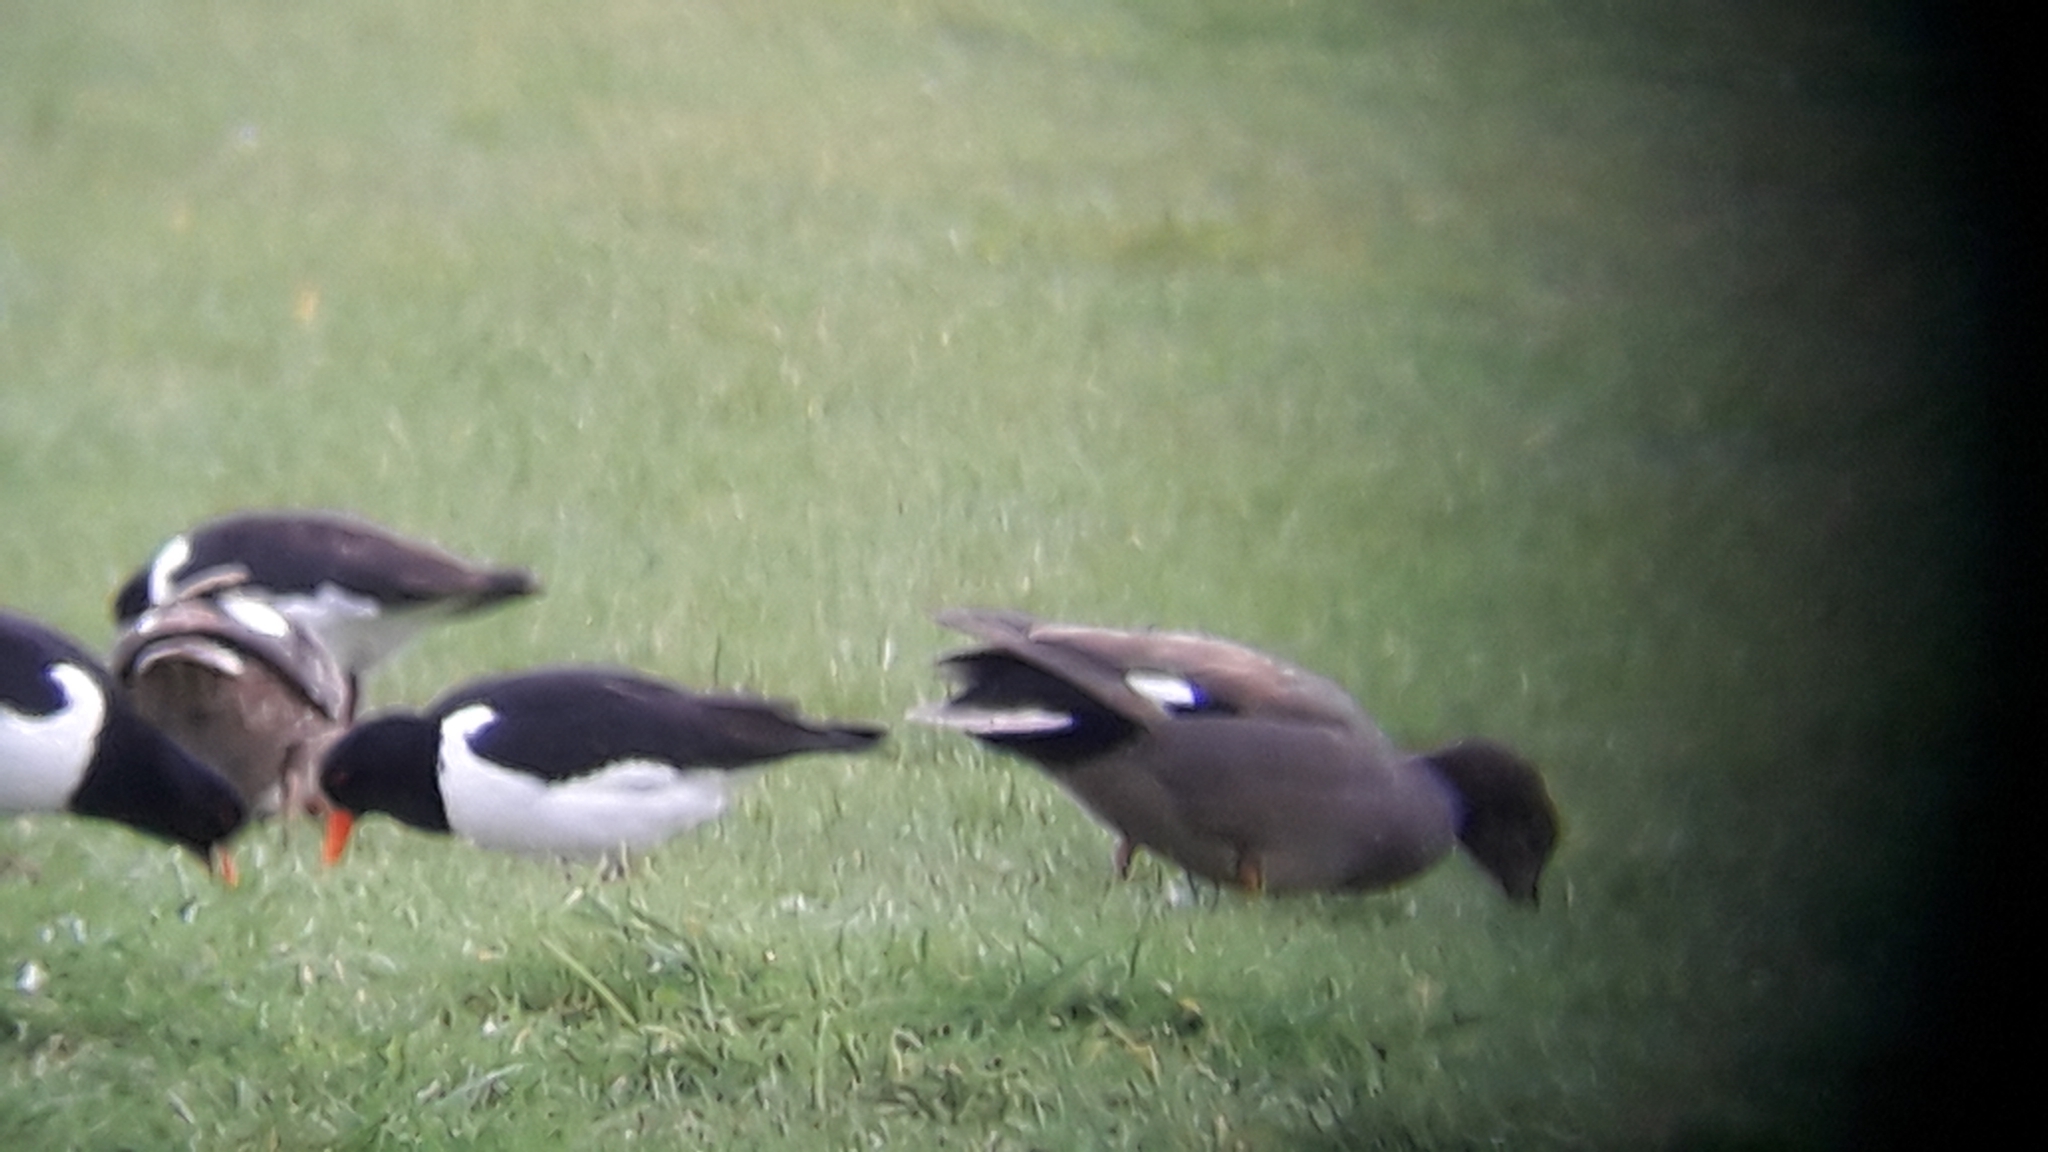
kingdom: Animalia
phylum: Chordata
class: Aves
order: Charadriiformes
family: Haematopodidae
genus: Haematopus
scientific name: Haematopus ostralegus
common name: Eurasian oystercatcher
